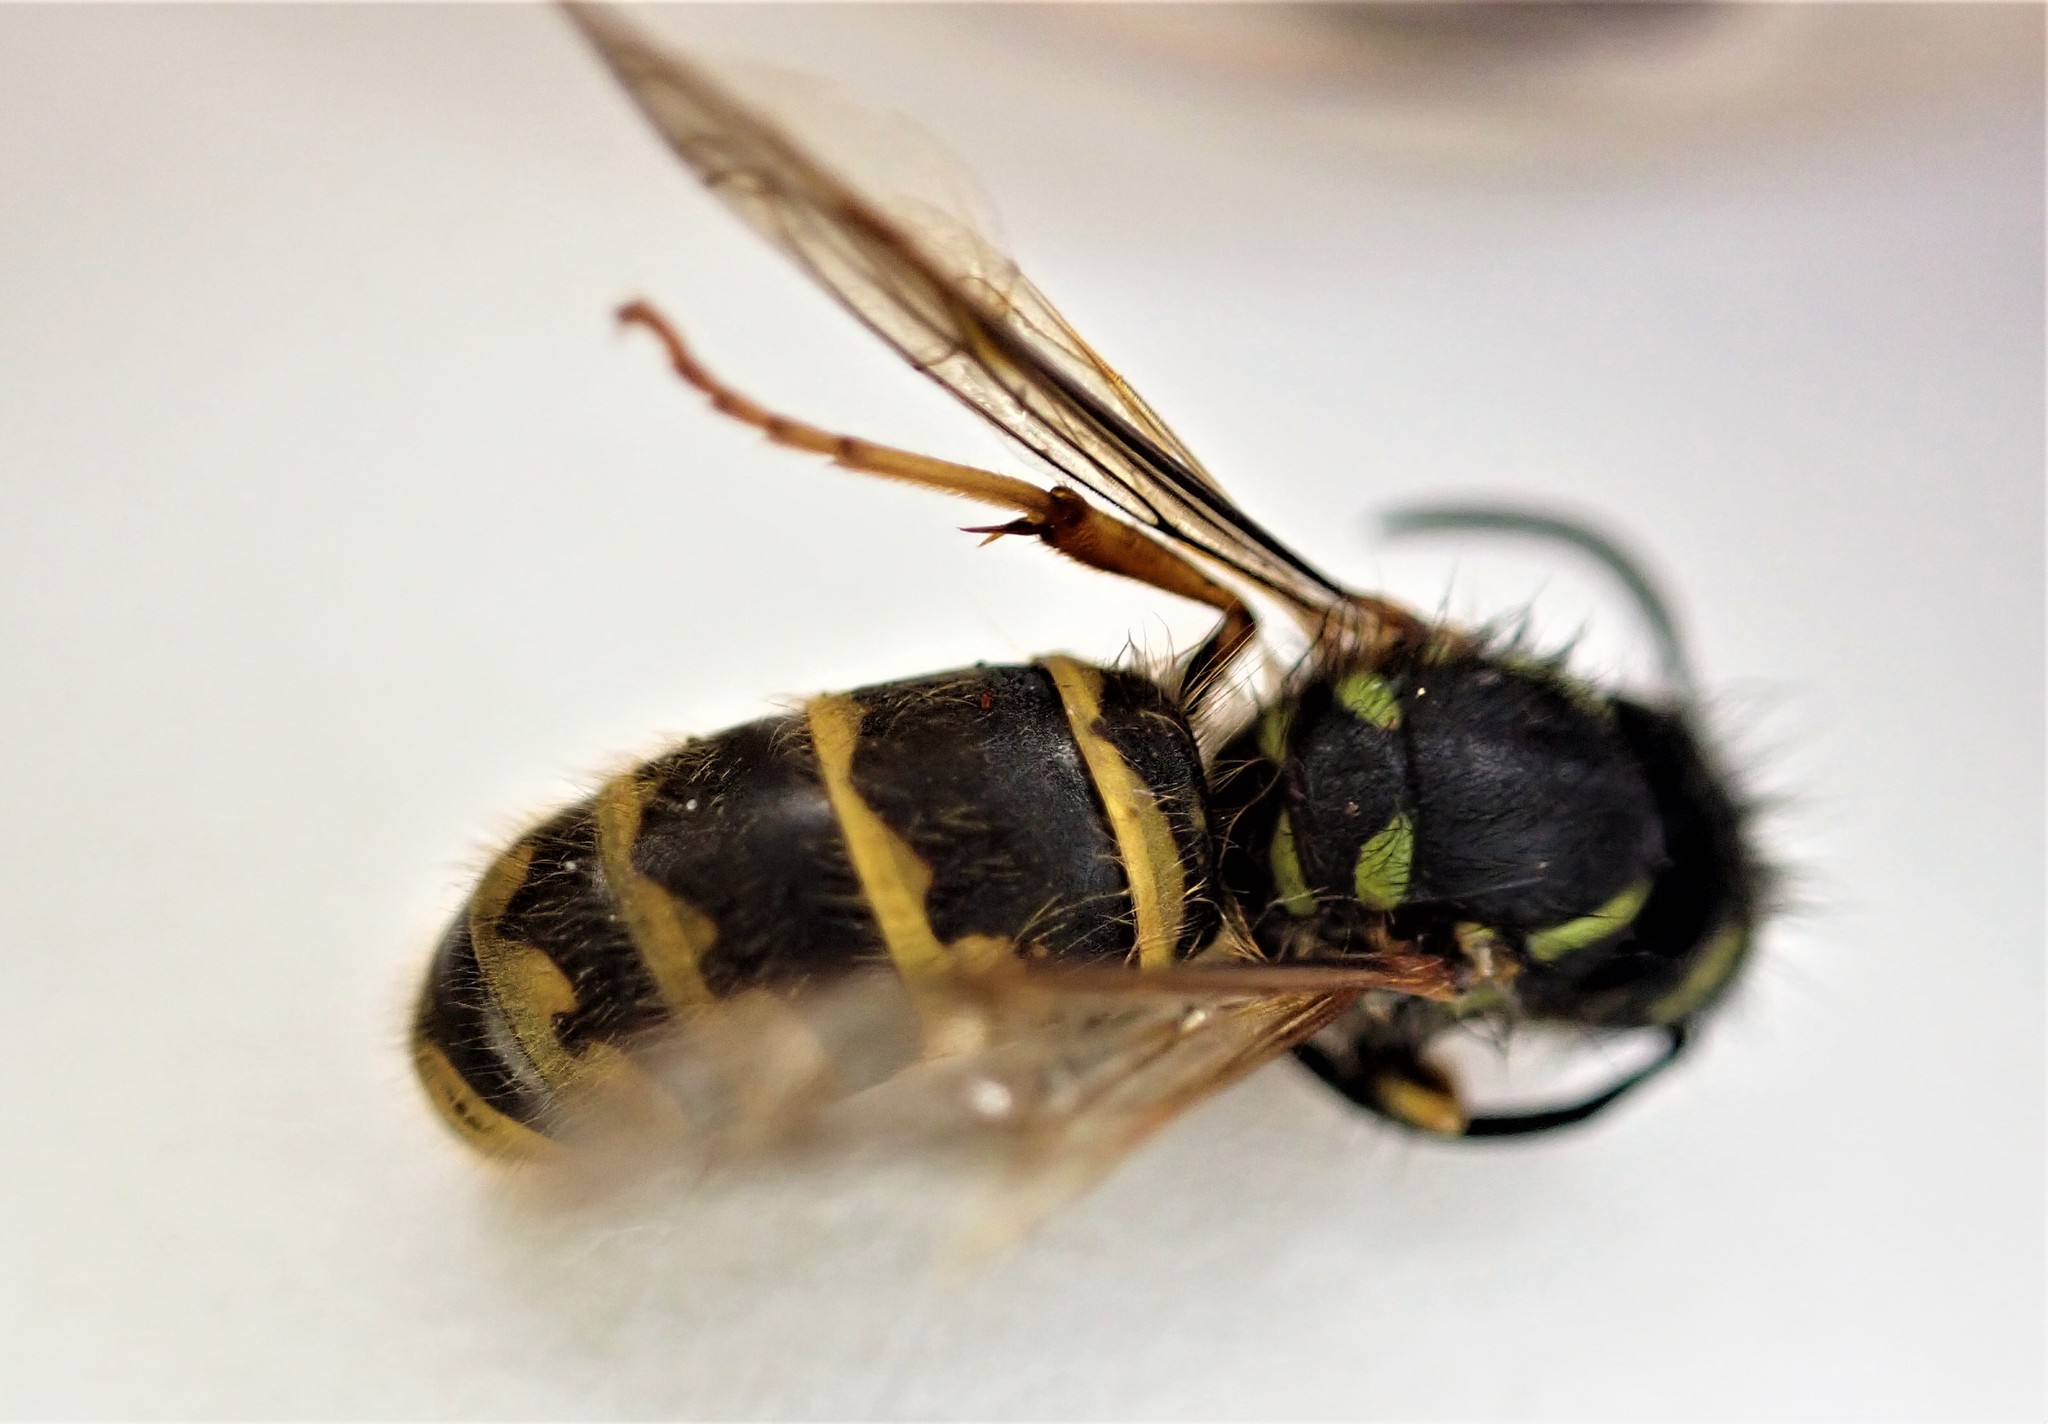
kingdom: Animalia
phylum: Arthropoda
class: Insecta
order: Hymenoptera
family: Vespidae
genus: Vespula
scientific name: Vespula vulgaris
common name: Common wasp
